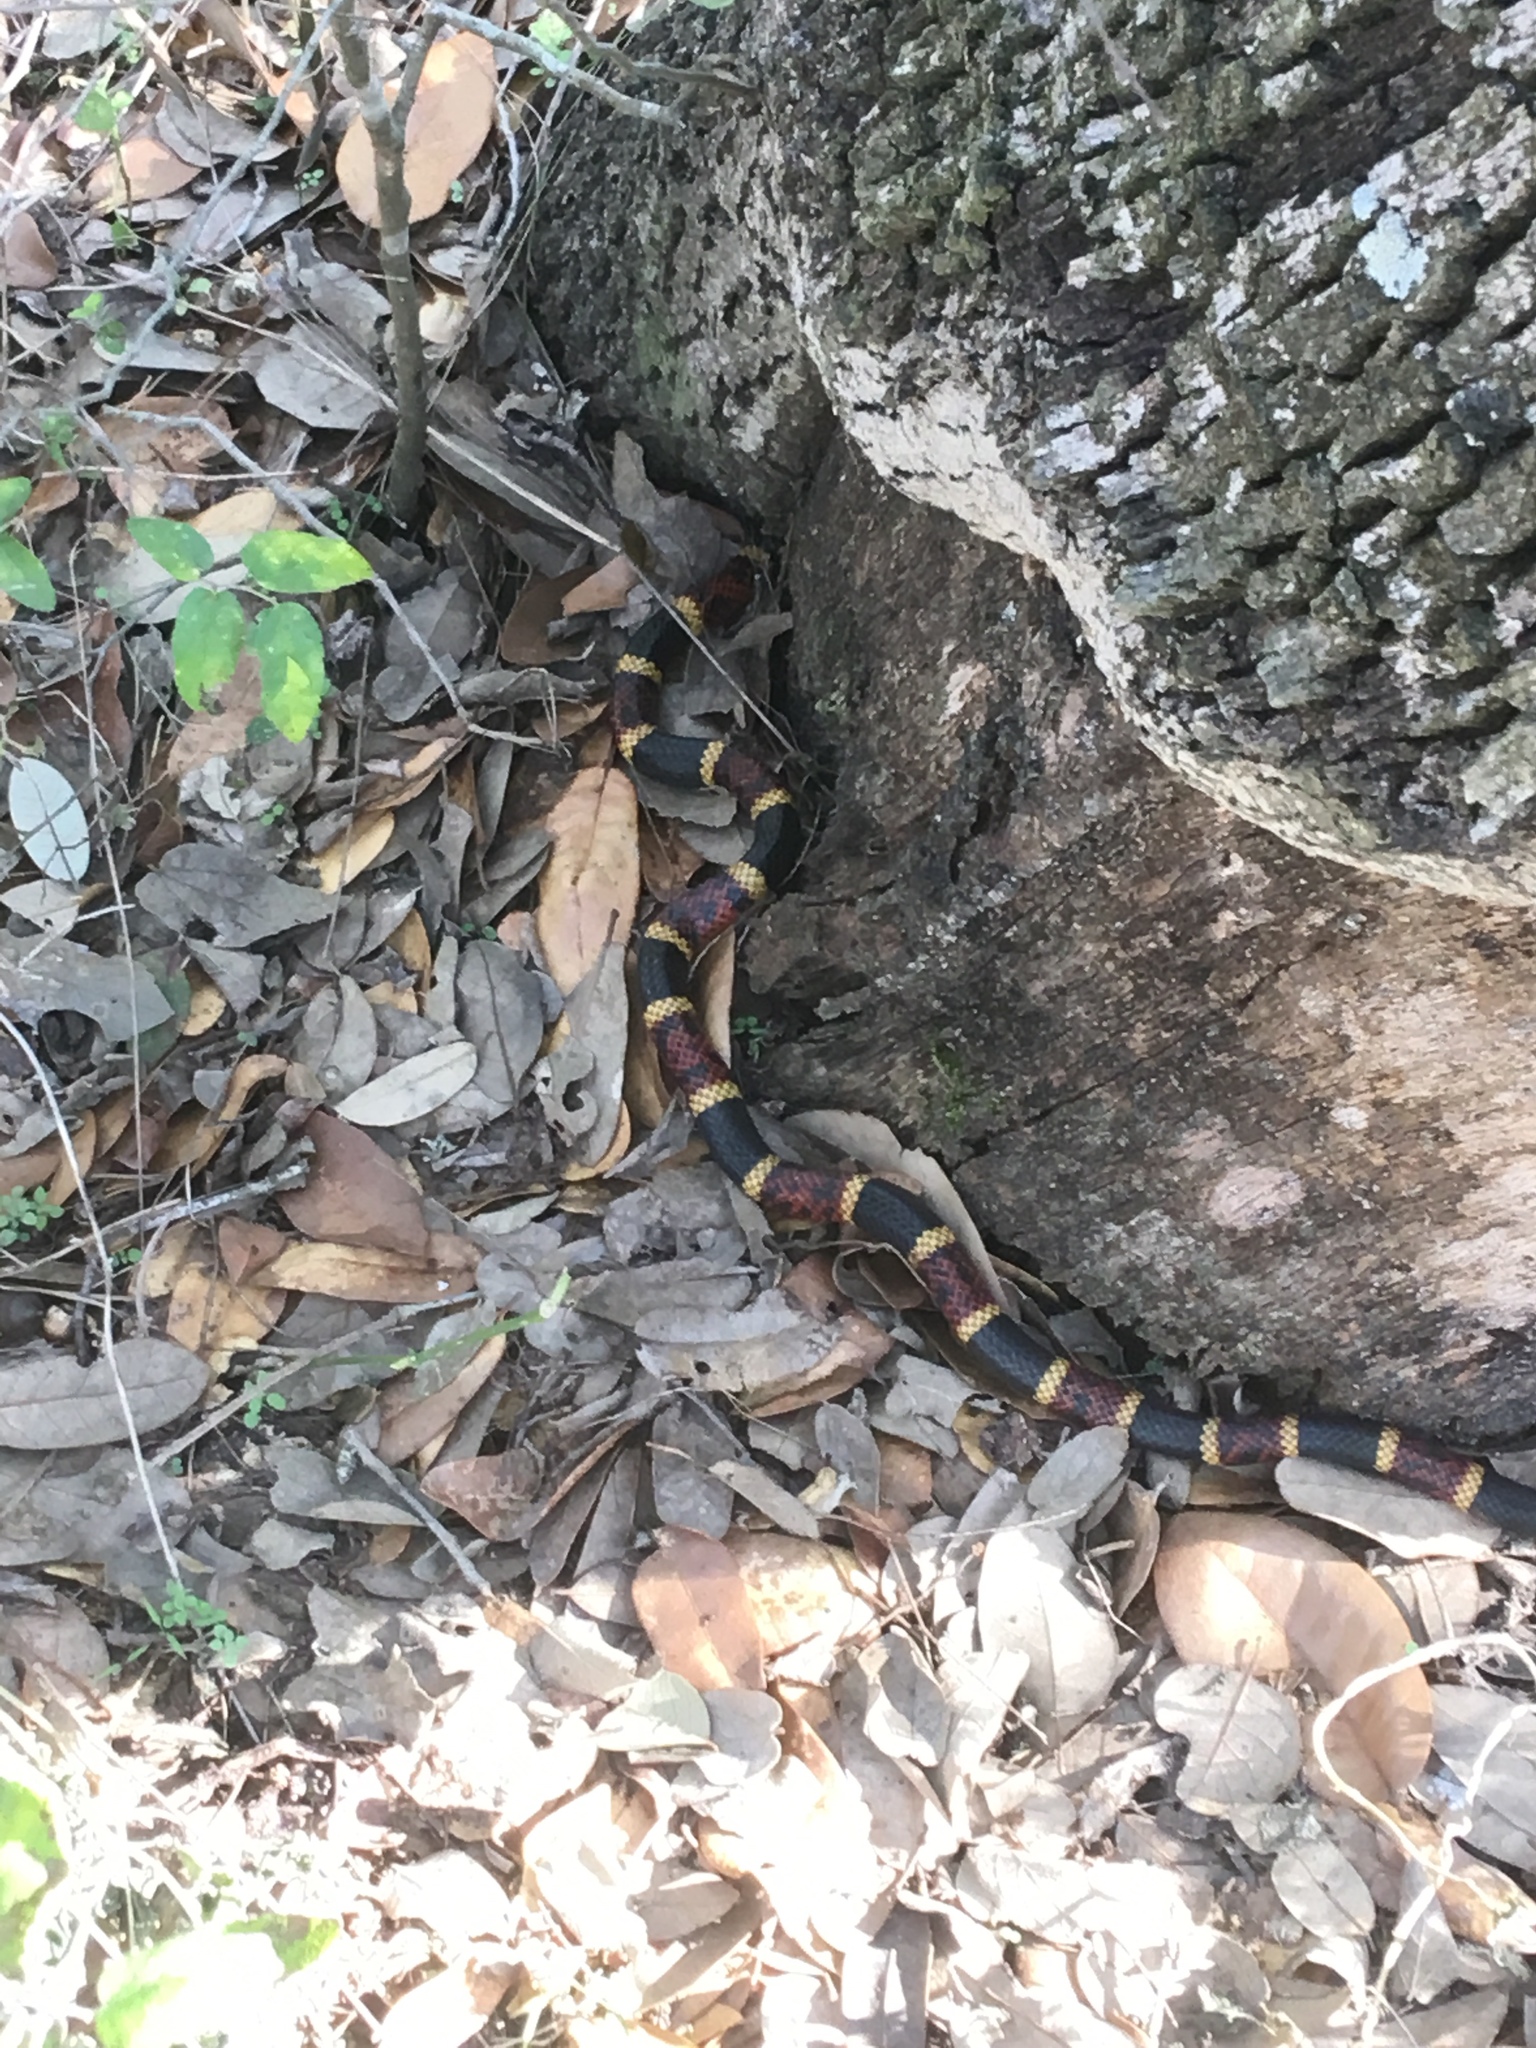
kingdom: Animalia
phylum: Chordata
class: Squamata
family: Elapidae
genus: Micrurus
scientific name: Micrurus tener
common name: Texas coral snake
